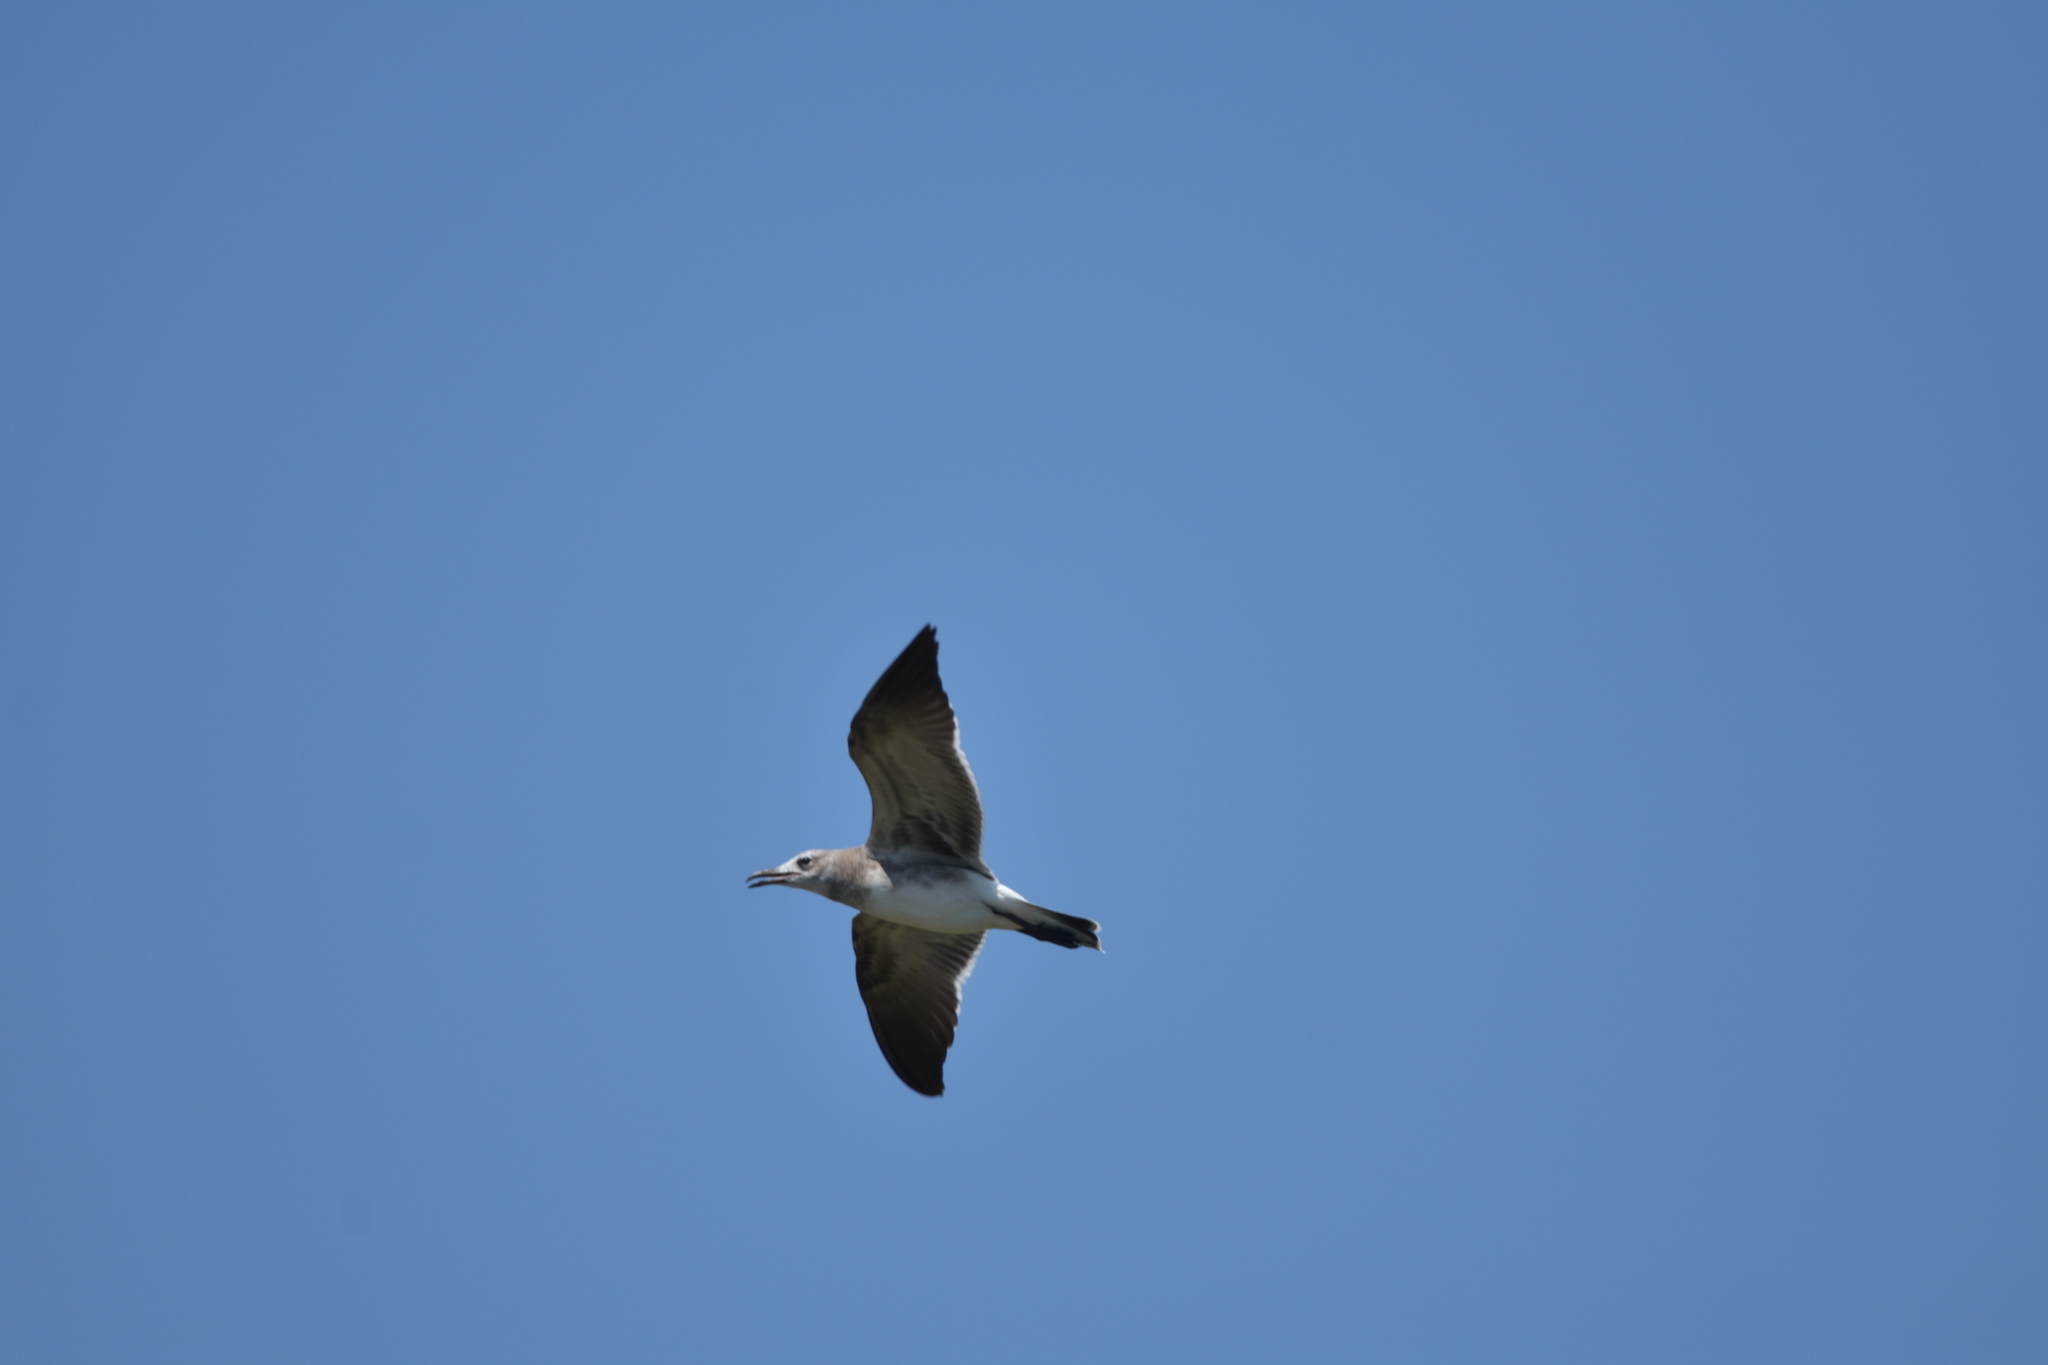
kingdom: Animalia
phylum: Chordata
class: Aves
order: Charadriiformes
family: Laridae
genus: Leucophaeus
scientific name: Leucophaeus atricilla
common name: Laughing gull
